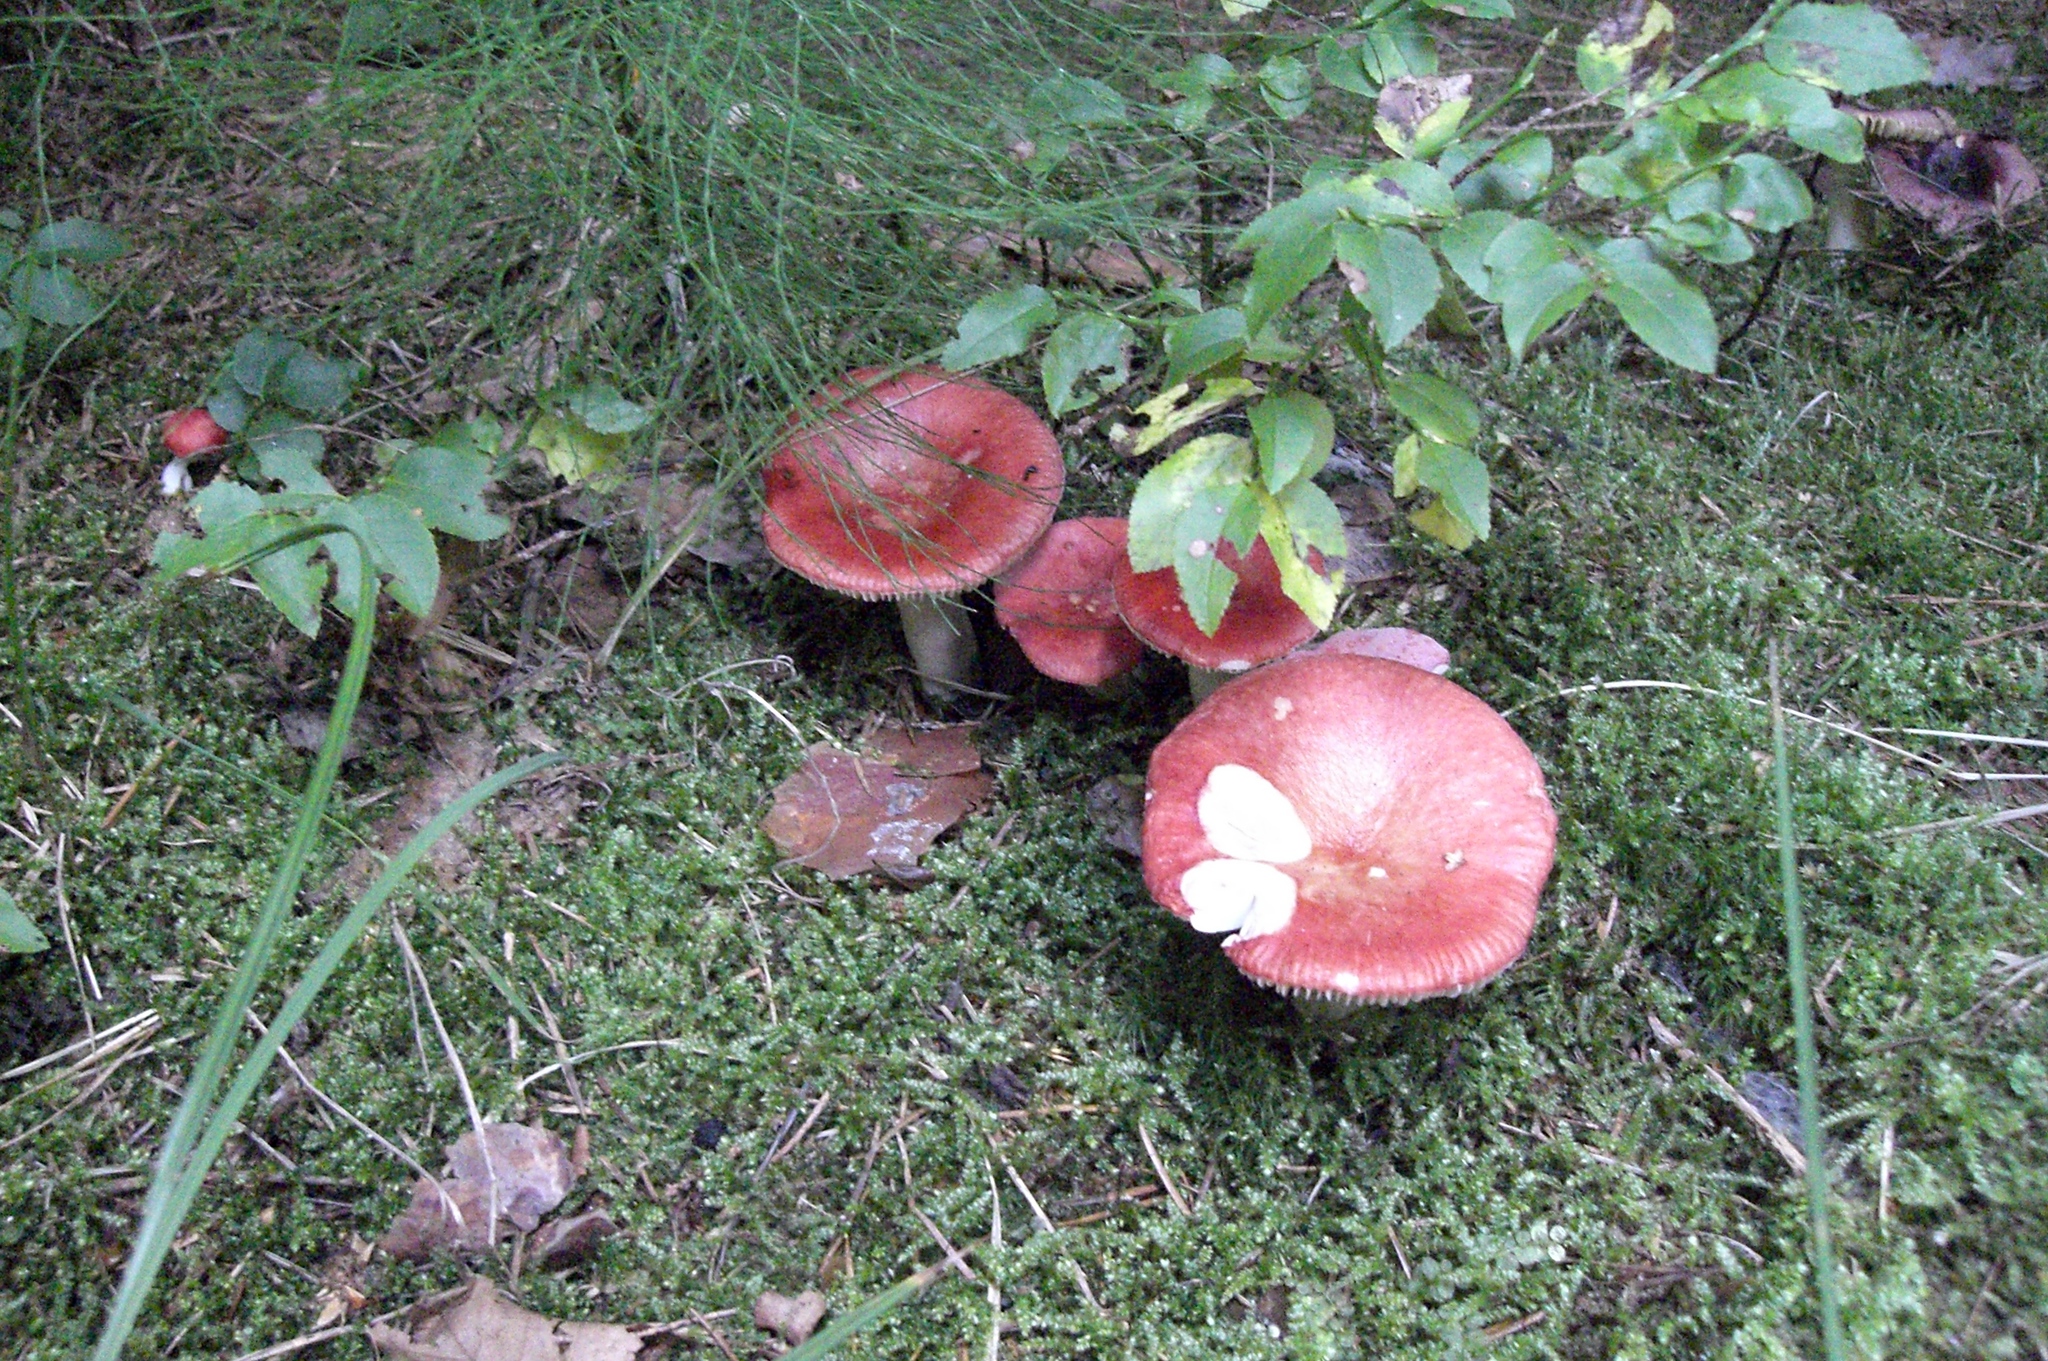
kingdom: Fungi
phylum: Basidiomycota
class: Agaricomycetes
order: Russulales
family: Russulaceae
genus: Russula
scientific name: Russula sanguinea
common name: Bloody brittlegill
